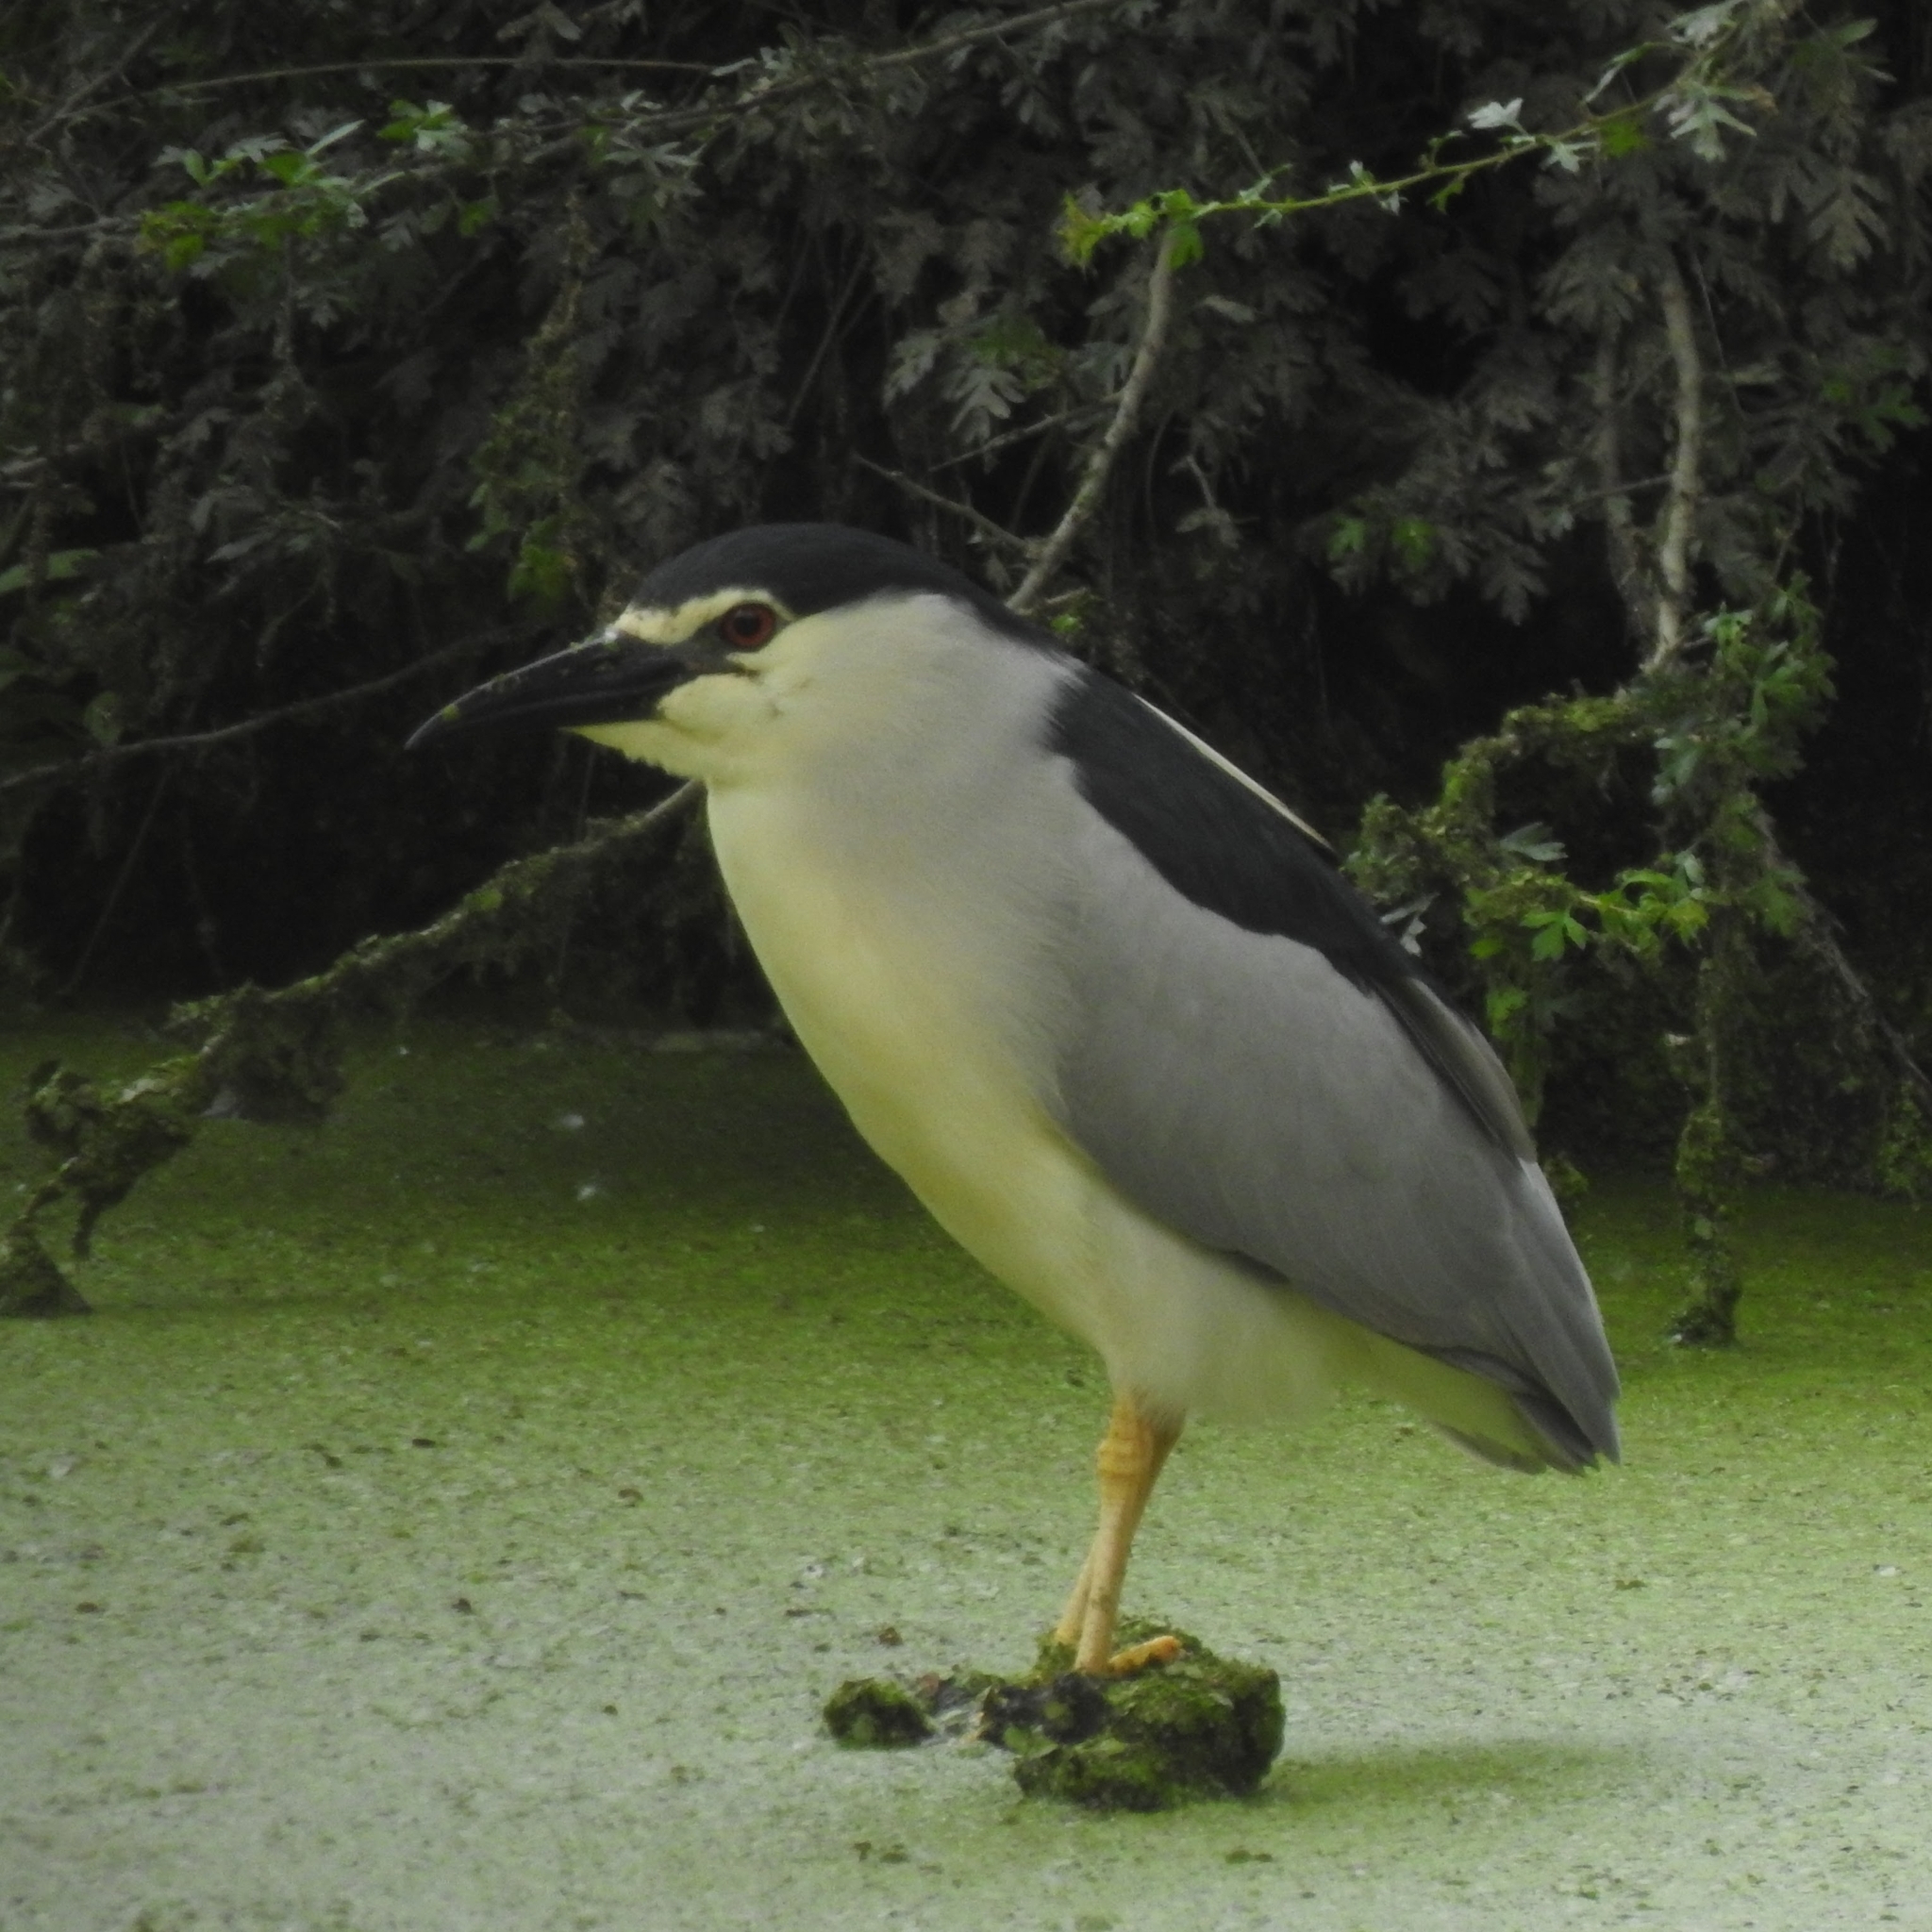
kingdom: Animalia
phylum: Chordata
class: Aves
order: Pelecaniformes
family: Ardeidae
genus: Nycticorax
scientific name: Nycticorax nycticorax
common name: Black-crowned night heron
